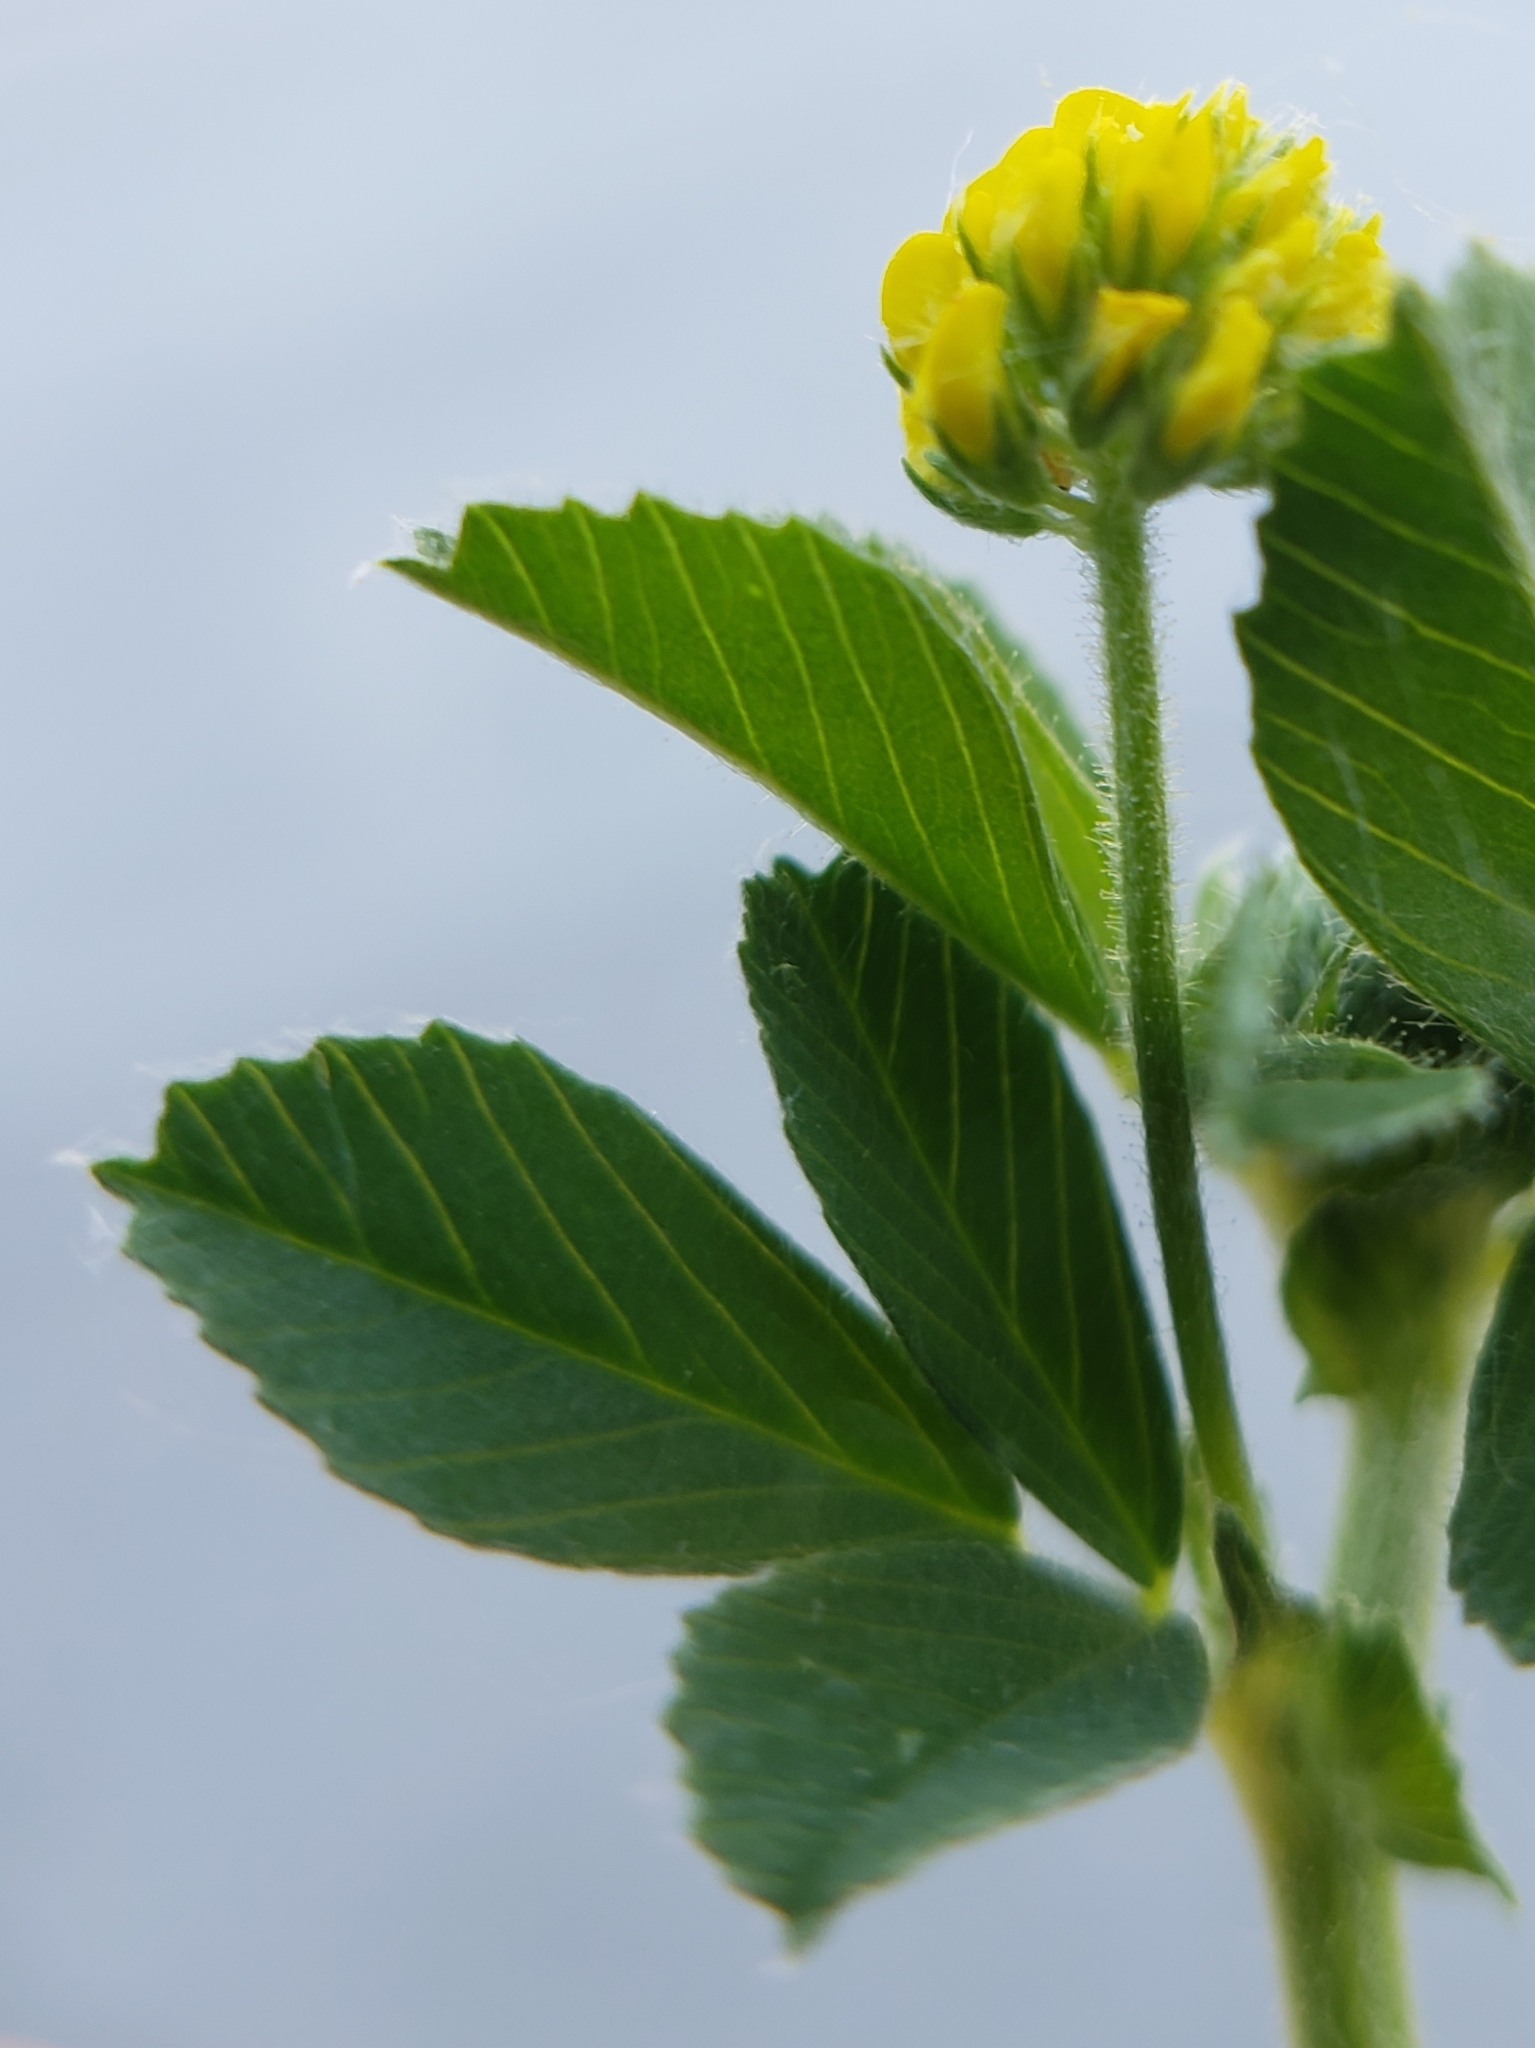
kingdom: Plantae
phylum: Tracheophyta
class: Magnoliopsida
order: Fabales
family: Fabaceae
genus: Medicago
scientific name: Medicago lupulina
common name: Black medick
